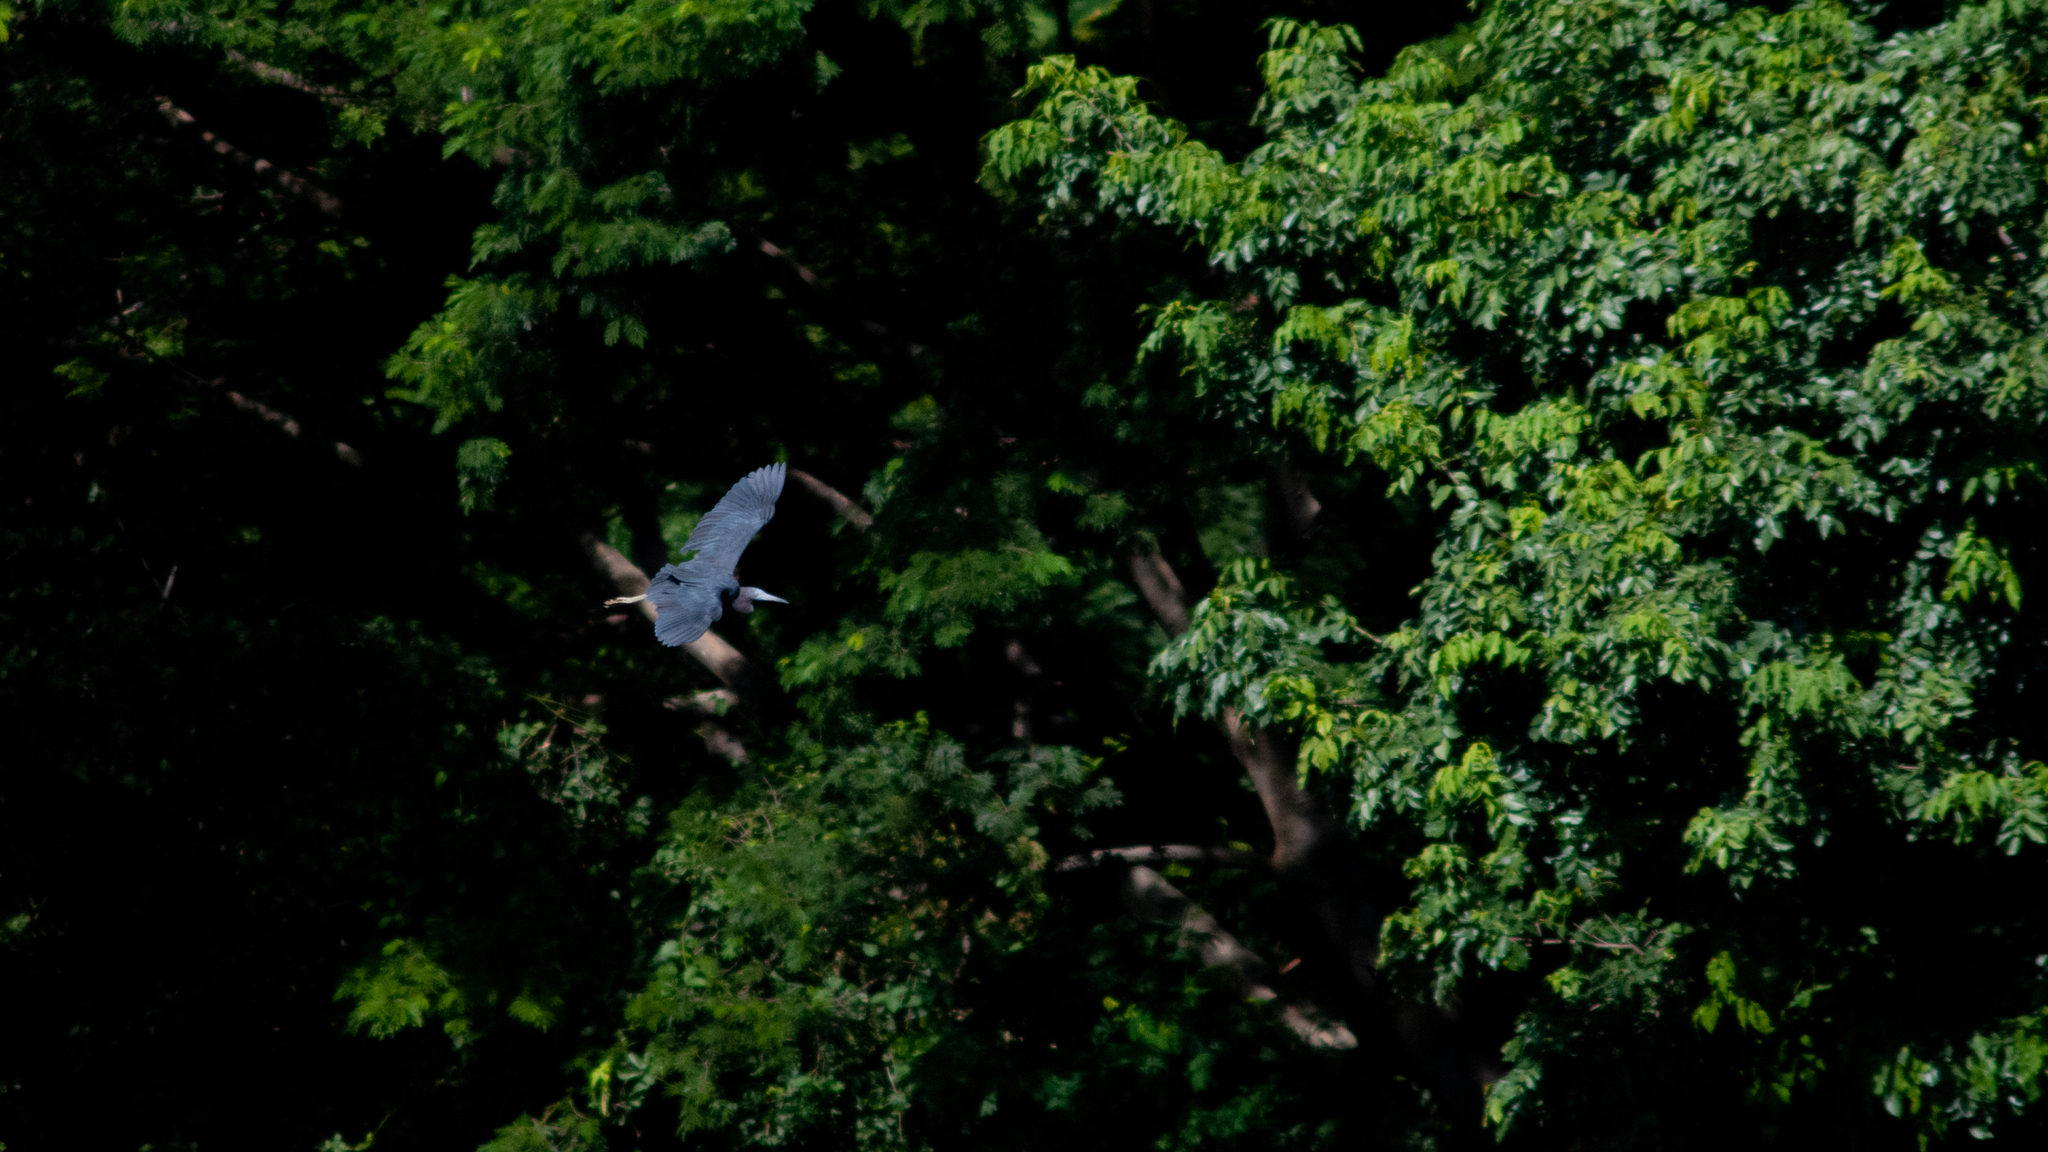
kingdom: Animalia
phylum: Chordata
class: Aves
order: Pelecaniformes
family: Ardeidae
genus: Egretta
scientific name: Egretta caerulea
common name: Little blue heron
